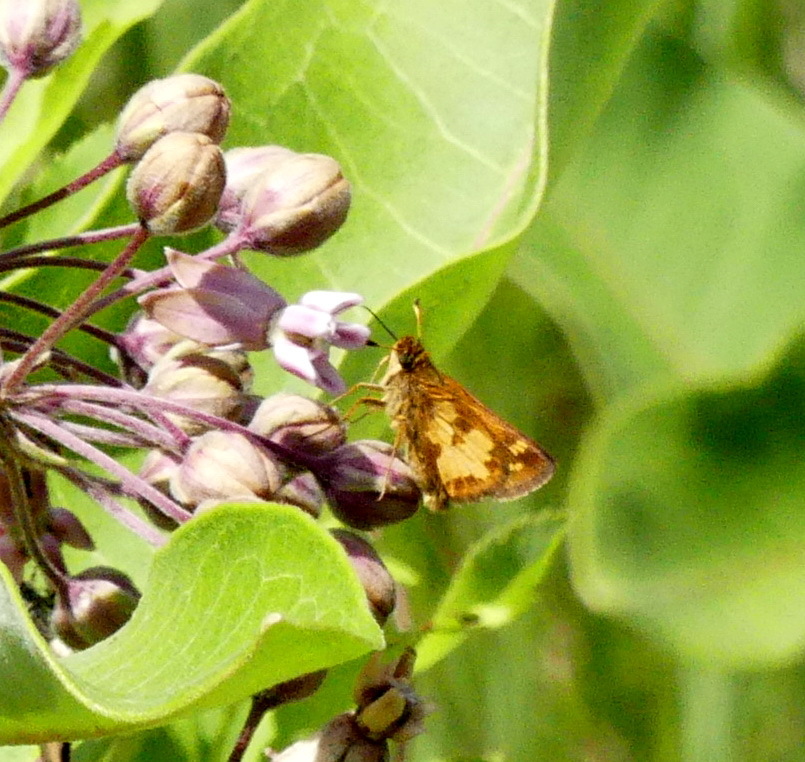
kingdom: Animalia
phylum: Arthropoda
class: Insecta
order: Lepidoptera
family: Hesperiidae
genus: Polites
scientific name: Polites coras
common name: Peck's skipper
